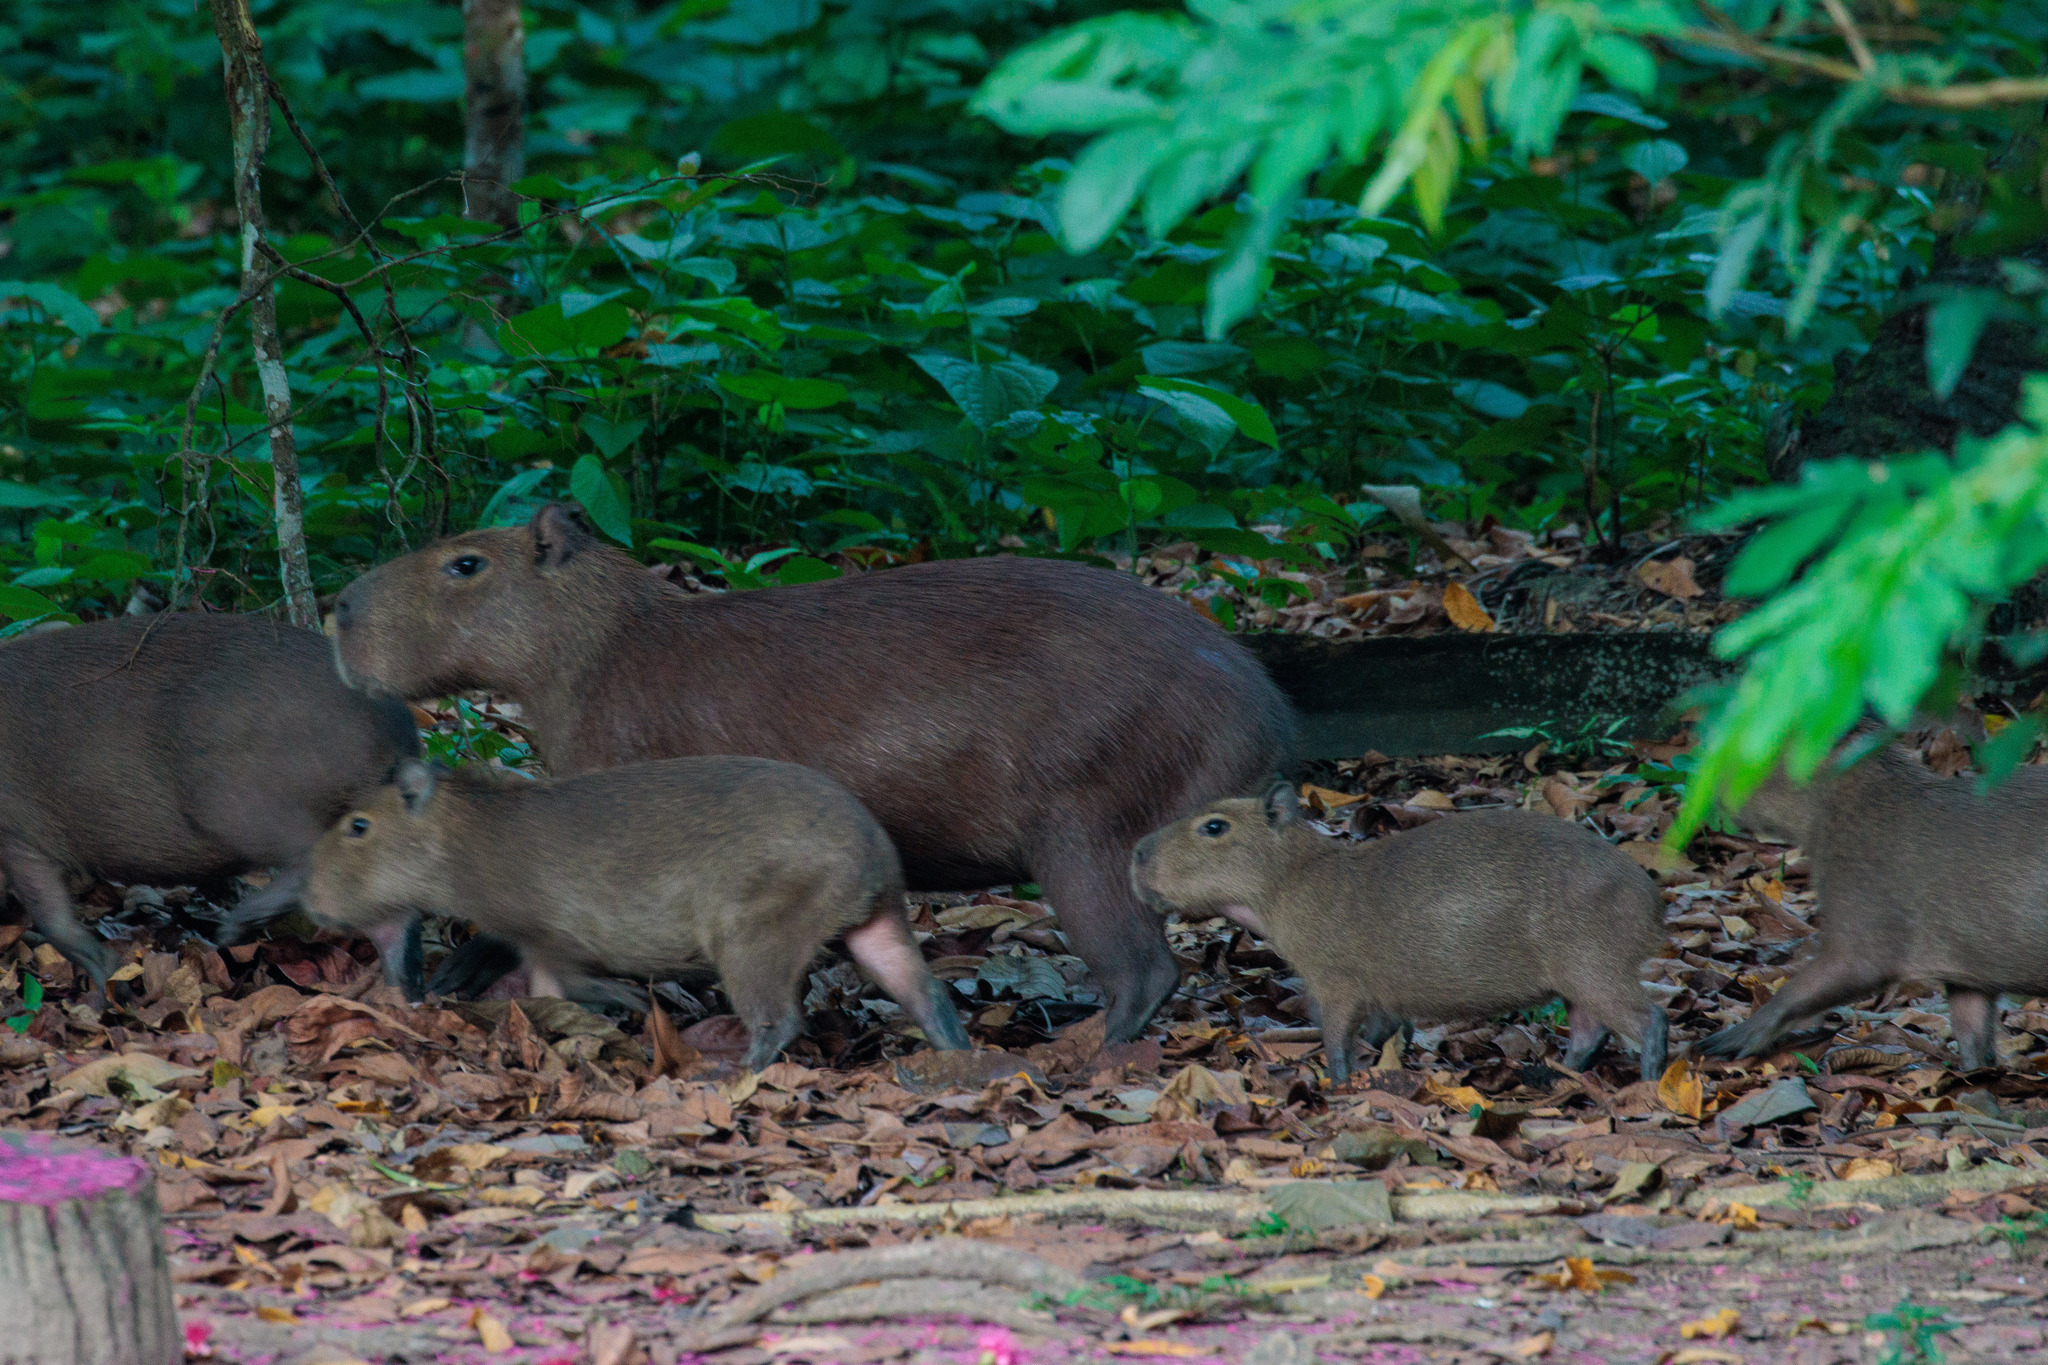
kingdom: Animalia
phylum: Chordata
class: Mammalia
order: Rodentia
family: Caviidae
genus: Hydrochoerus
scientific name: Hydrochoerus hydrochaeris
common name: Capybara
